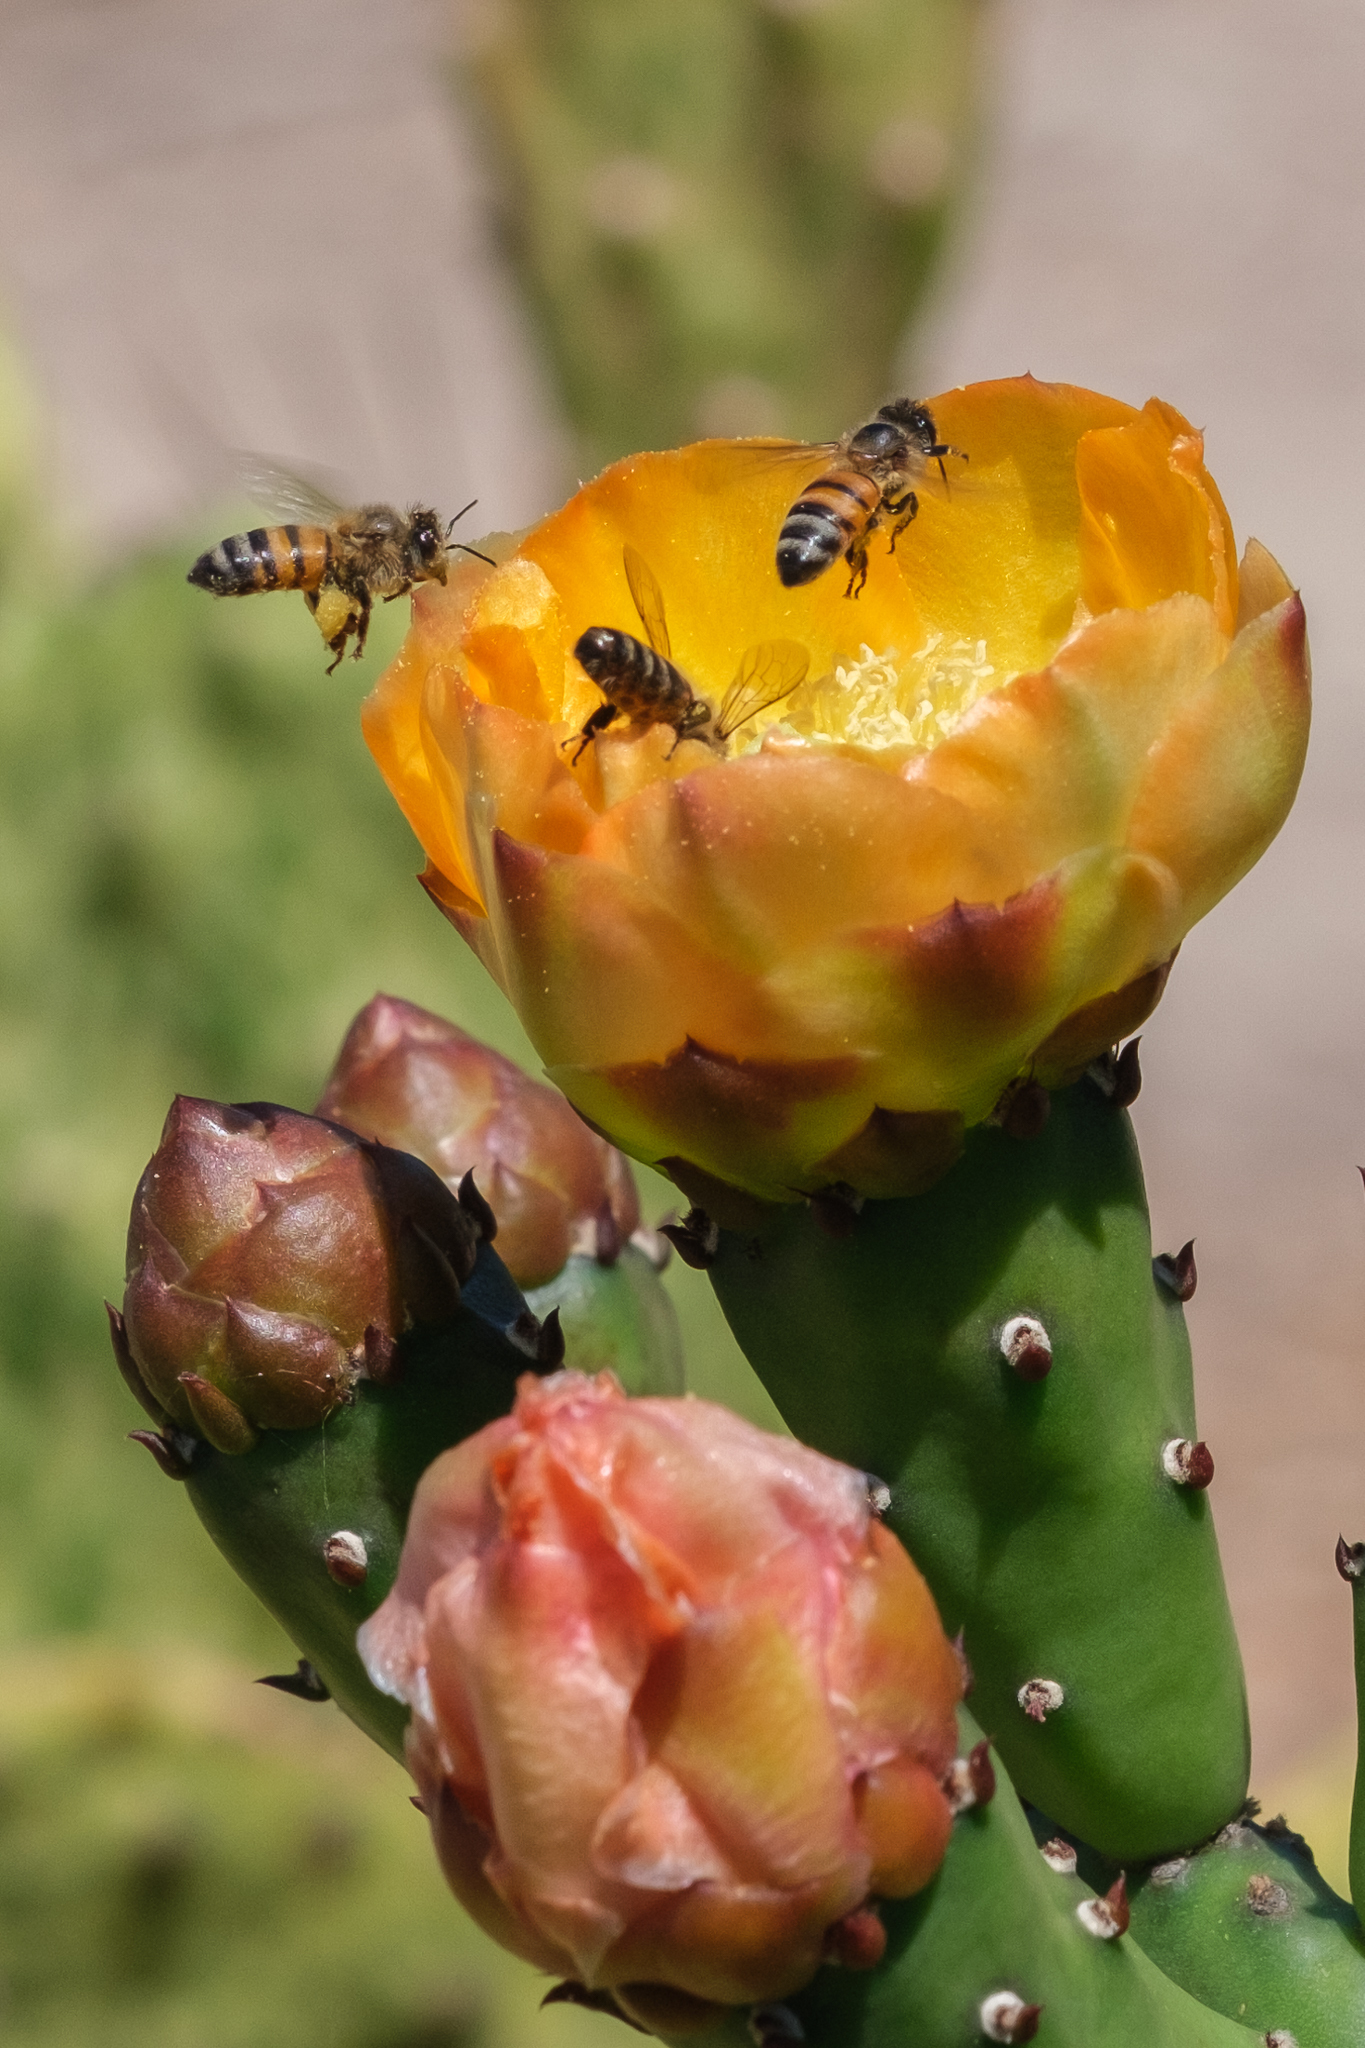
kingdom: Animalia
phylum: Arthropoda
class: Insecta
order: Hymenoptera
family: Apidae
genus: Apis
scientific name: Apis mellifera
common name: Honey bee
